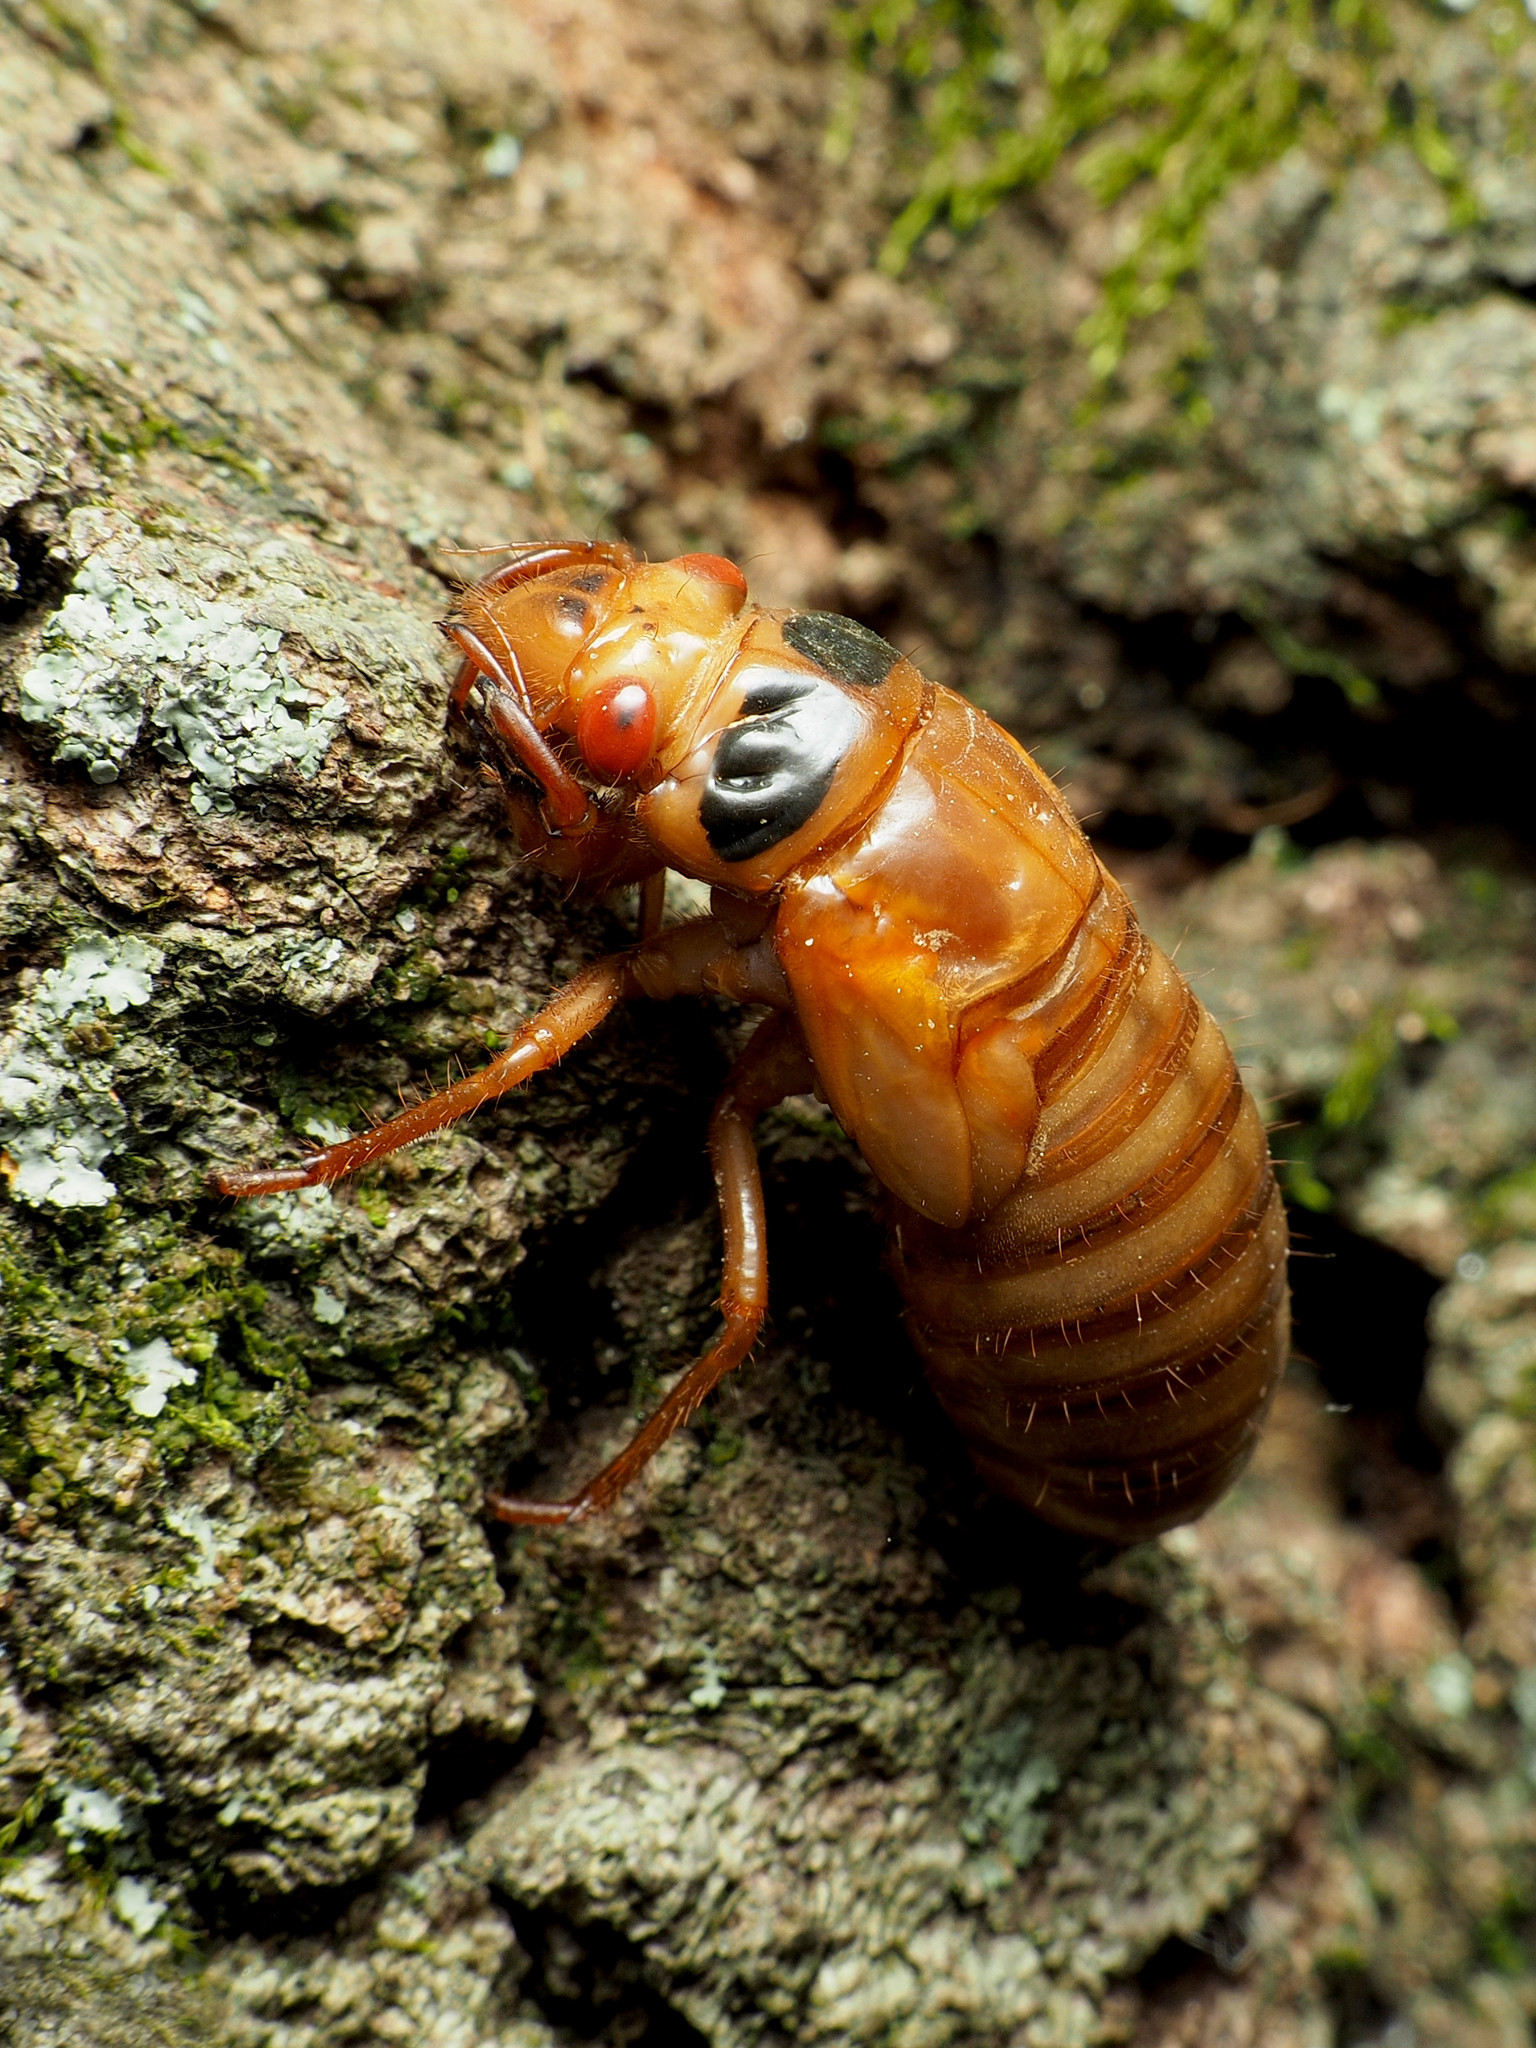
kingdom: Animalia
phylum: Arthropoda
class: Insecta
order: Hemiptera
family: Cicadidae
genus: Magicicada
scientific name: Magicicada
